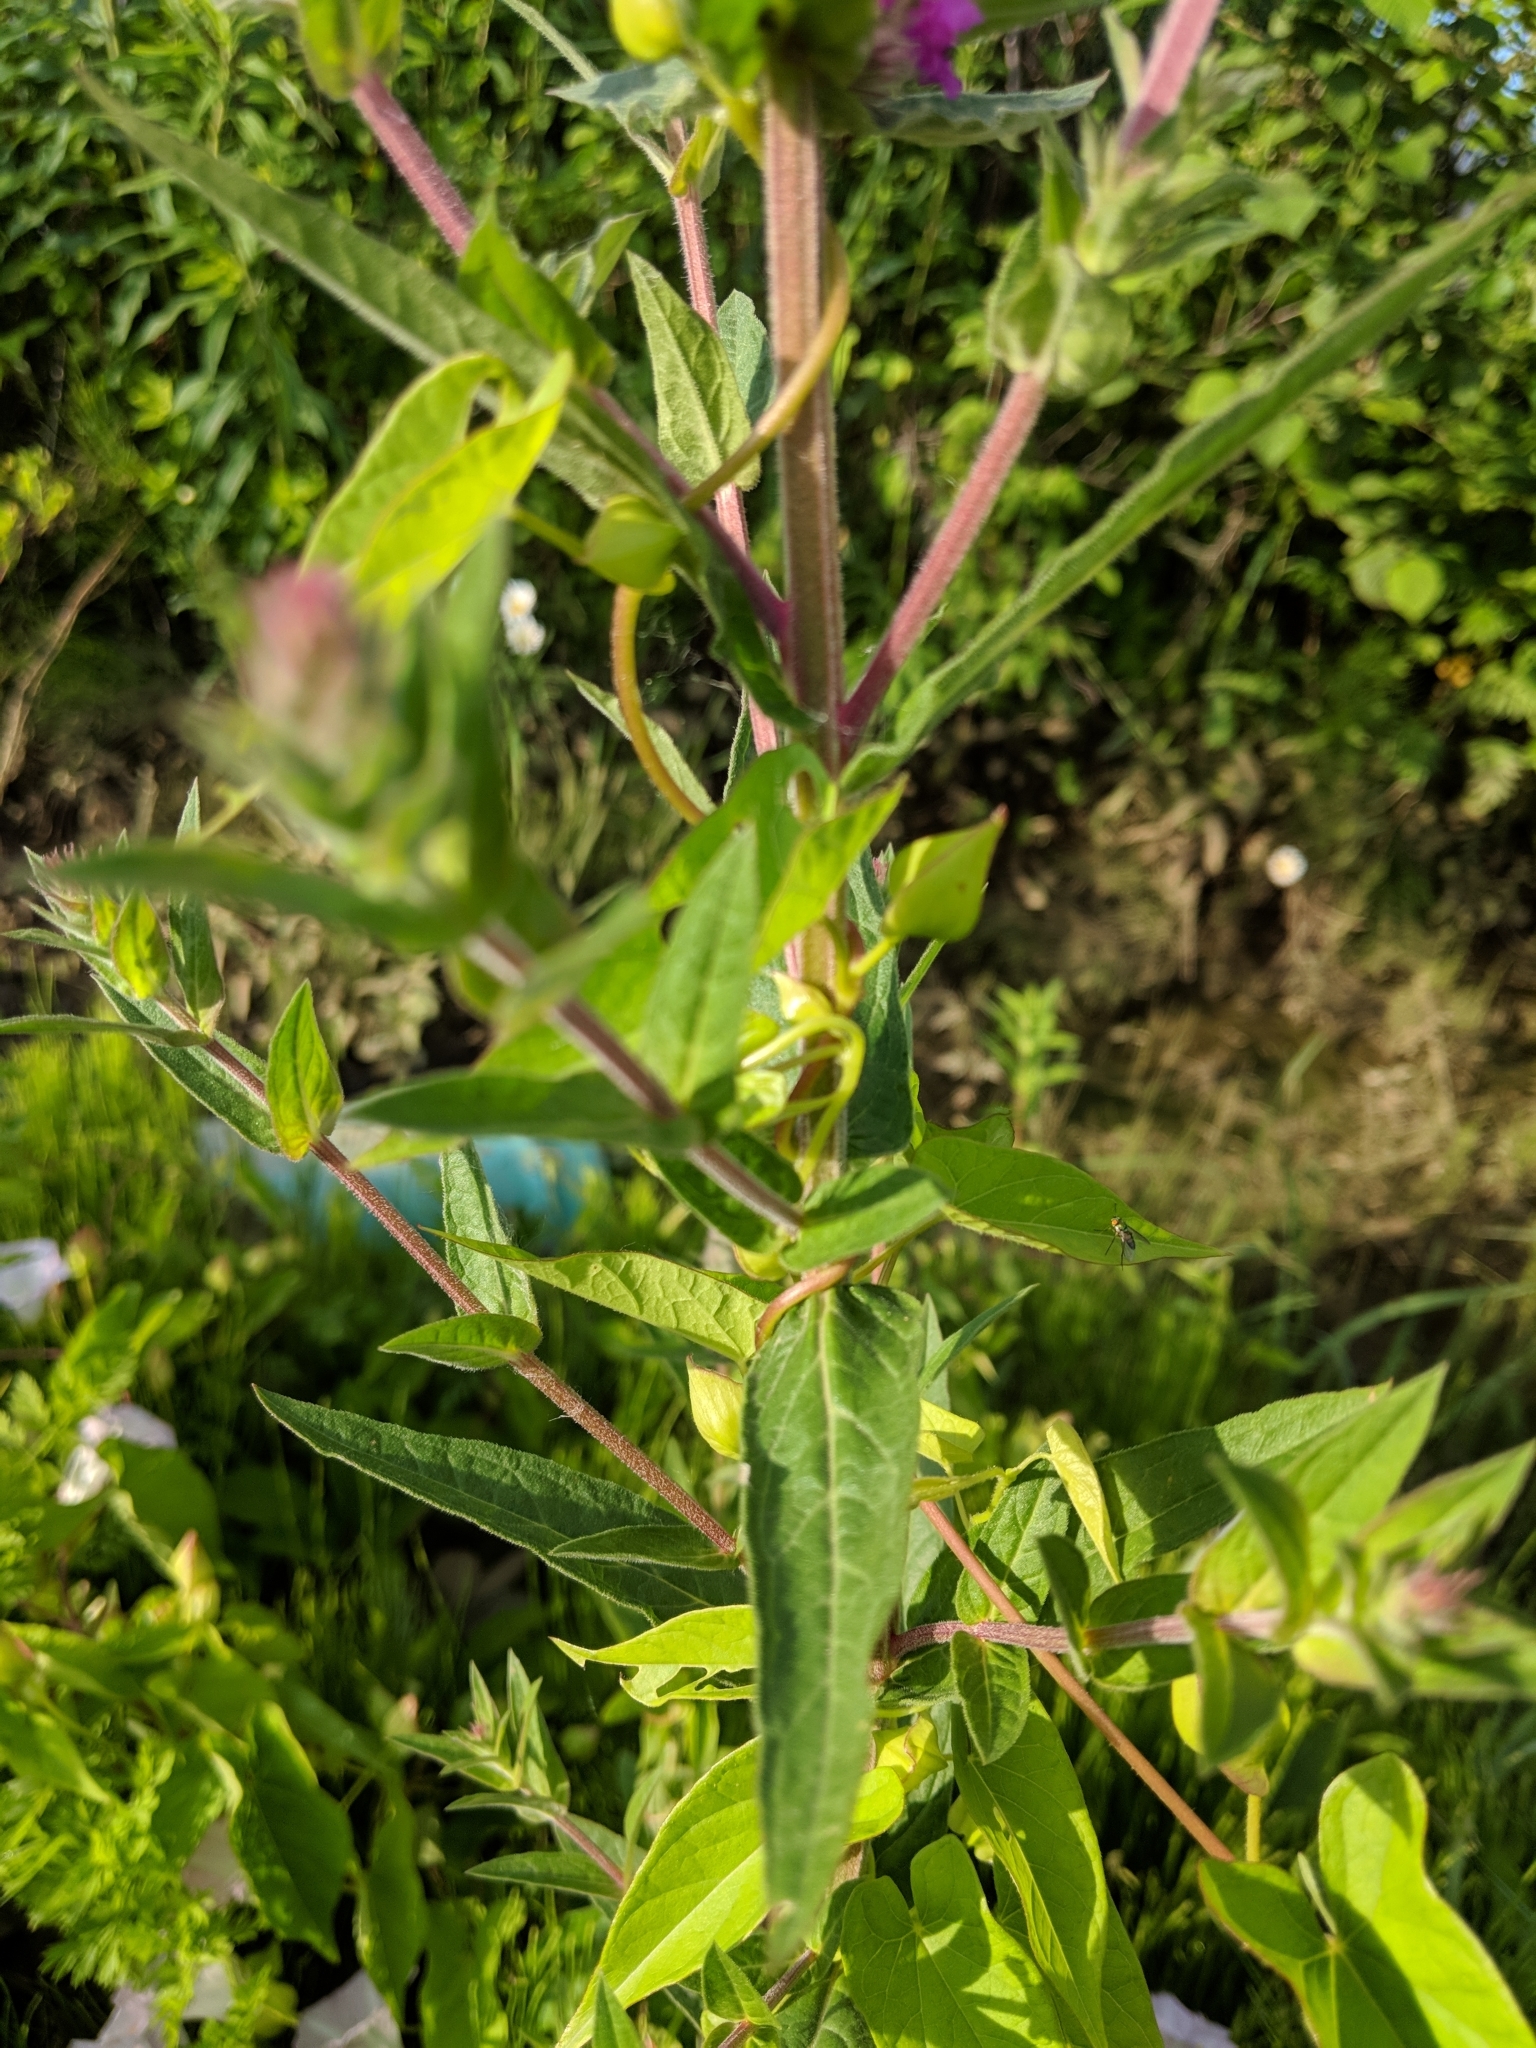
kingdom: Plantae
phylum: Tracheophyta
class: Magnoliopsida
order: Myrtales
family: Lythraceae
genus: Lythrum
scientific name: Lythrum salicaria
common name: Purple loosestrife
